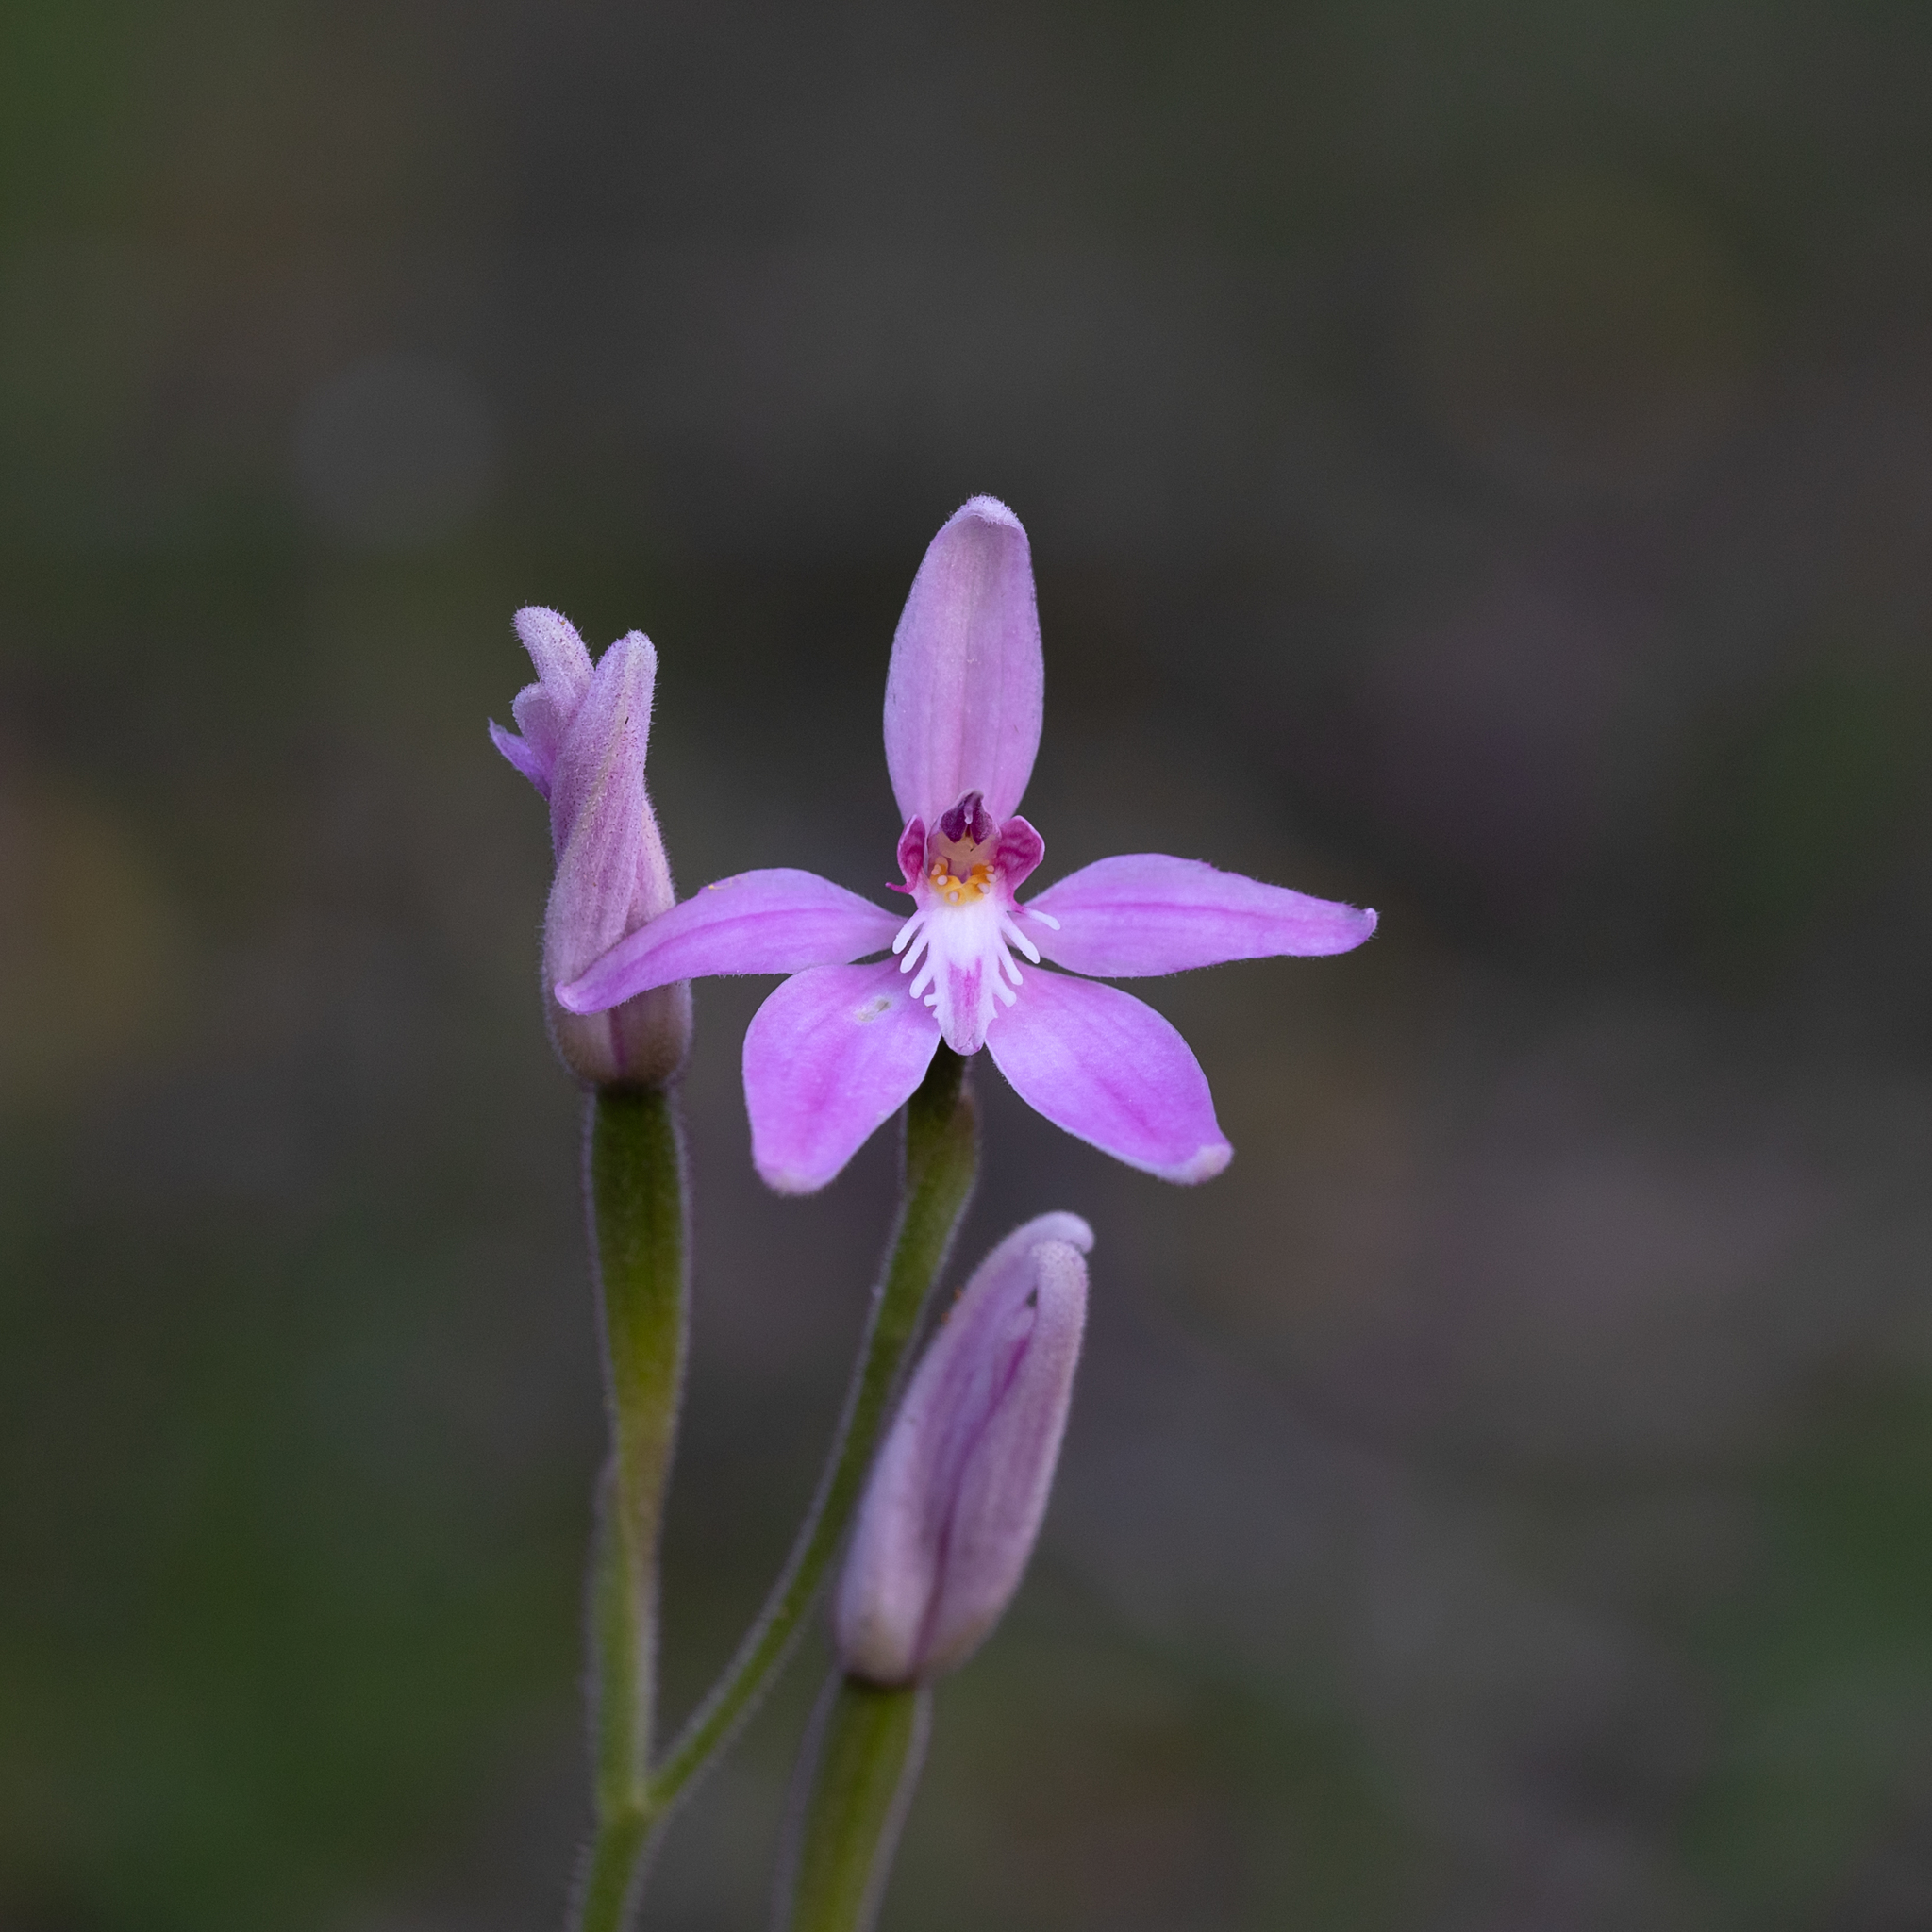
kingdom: Plantae
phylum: Tracheophyta
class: Liliopsida
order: Asparagales
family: Orchidaceae
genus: Caladenia
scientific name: Caladenia latifolia
